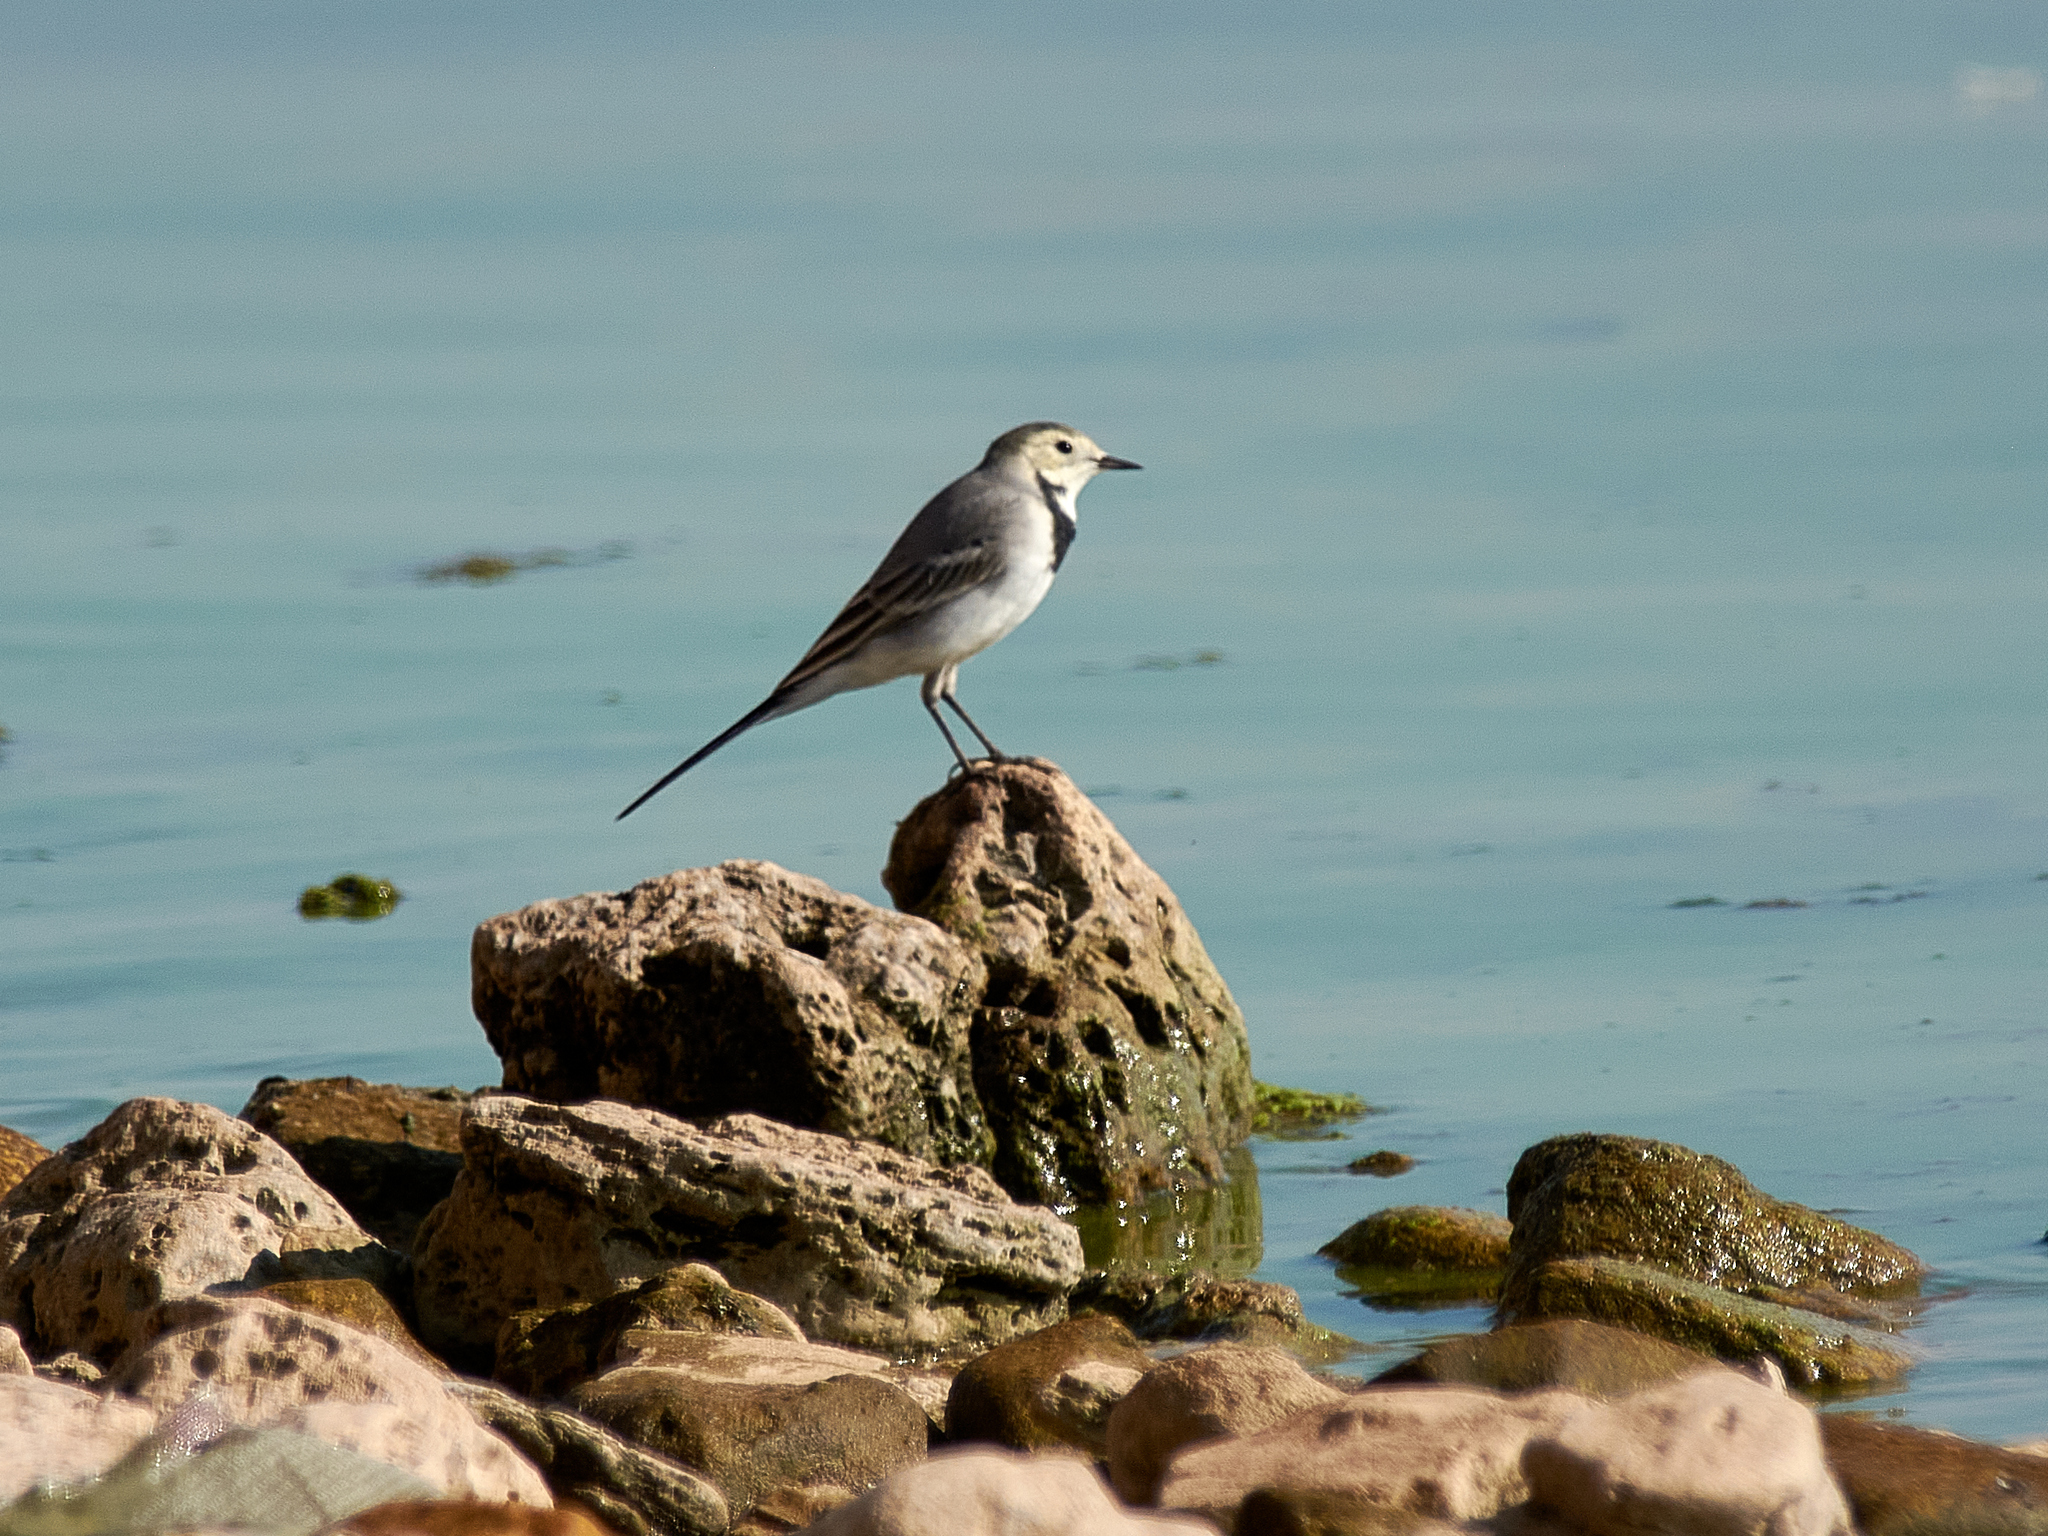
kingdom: Animalia
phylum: Chordata
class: Aves
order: Passeriformes
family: Motacillidae
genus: Motacilla
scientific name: Motacilla alba
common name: White wagtail
